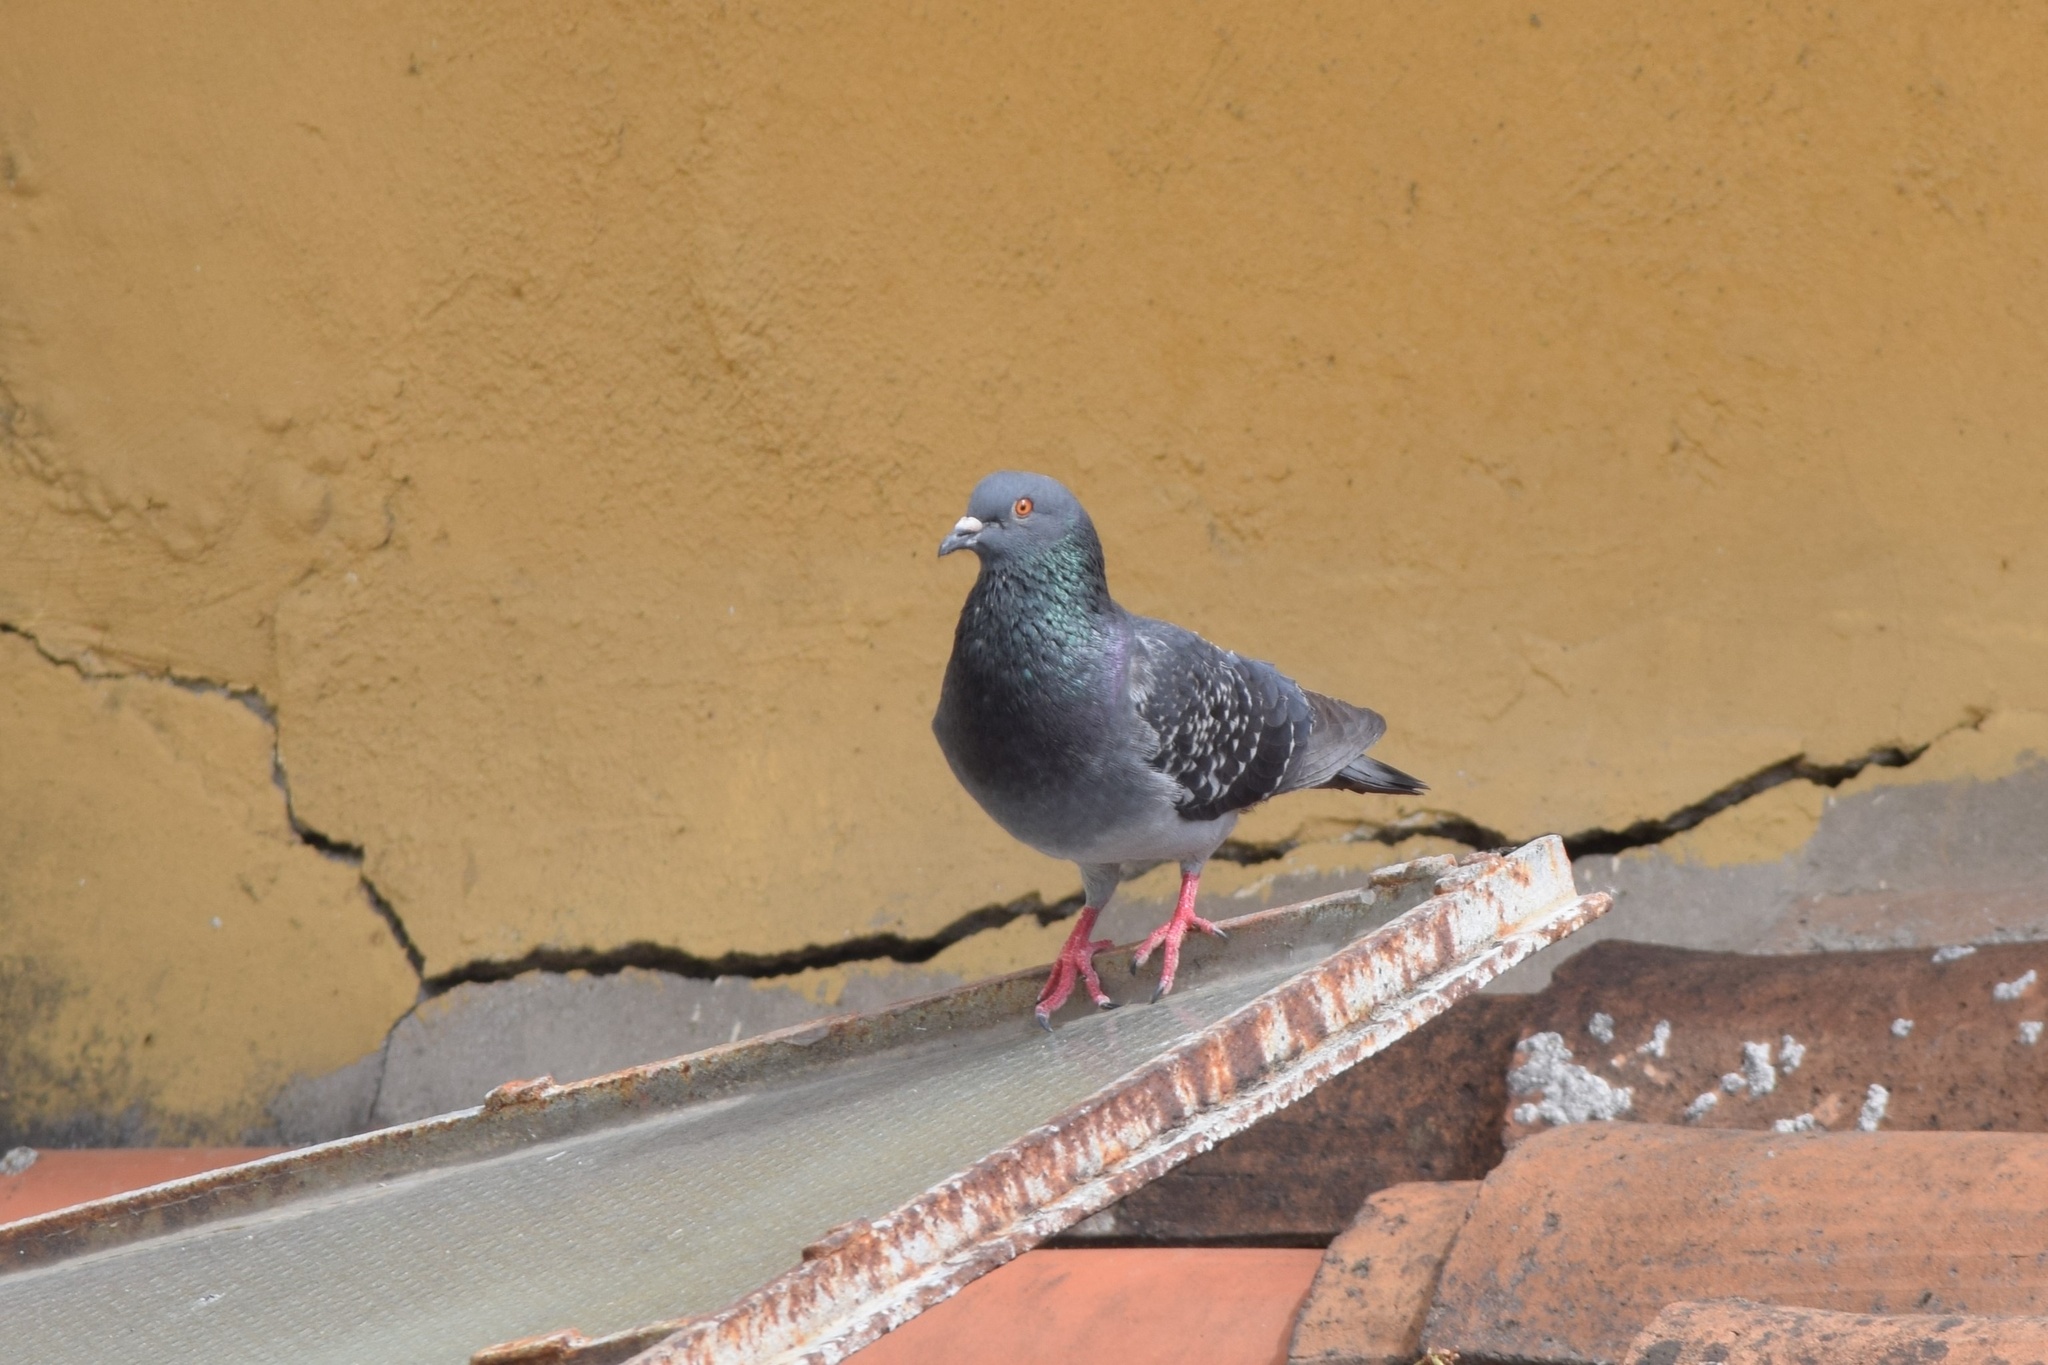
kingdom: Animalia
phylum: Chordata
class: Aves
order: Columbiformes
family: Columbidae
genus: Columba
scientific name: Columba livia
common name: Rock pigeon
